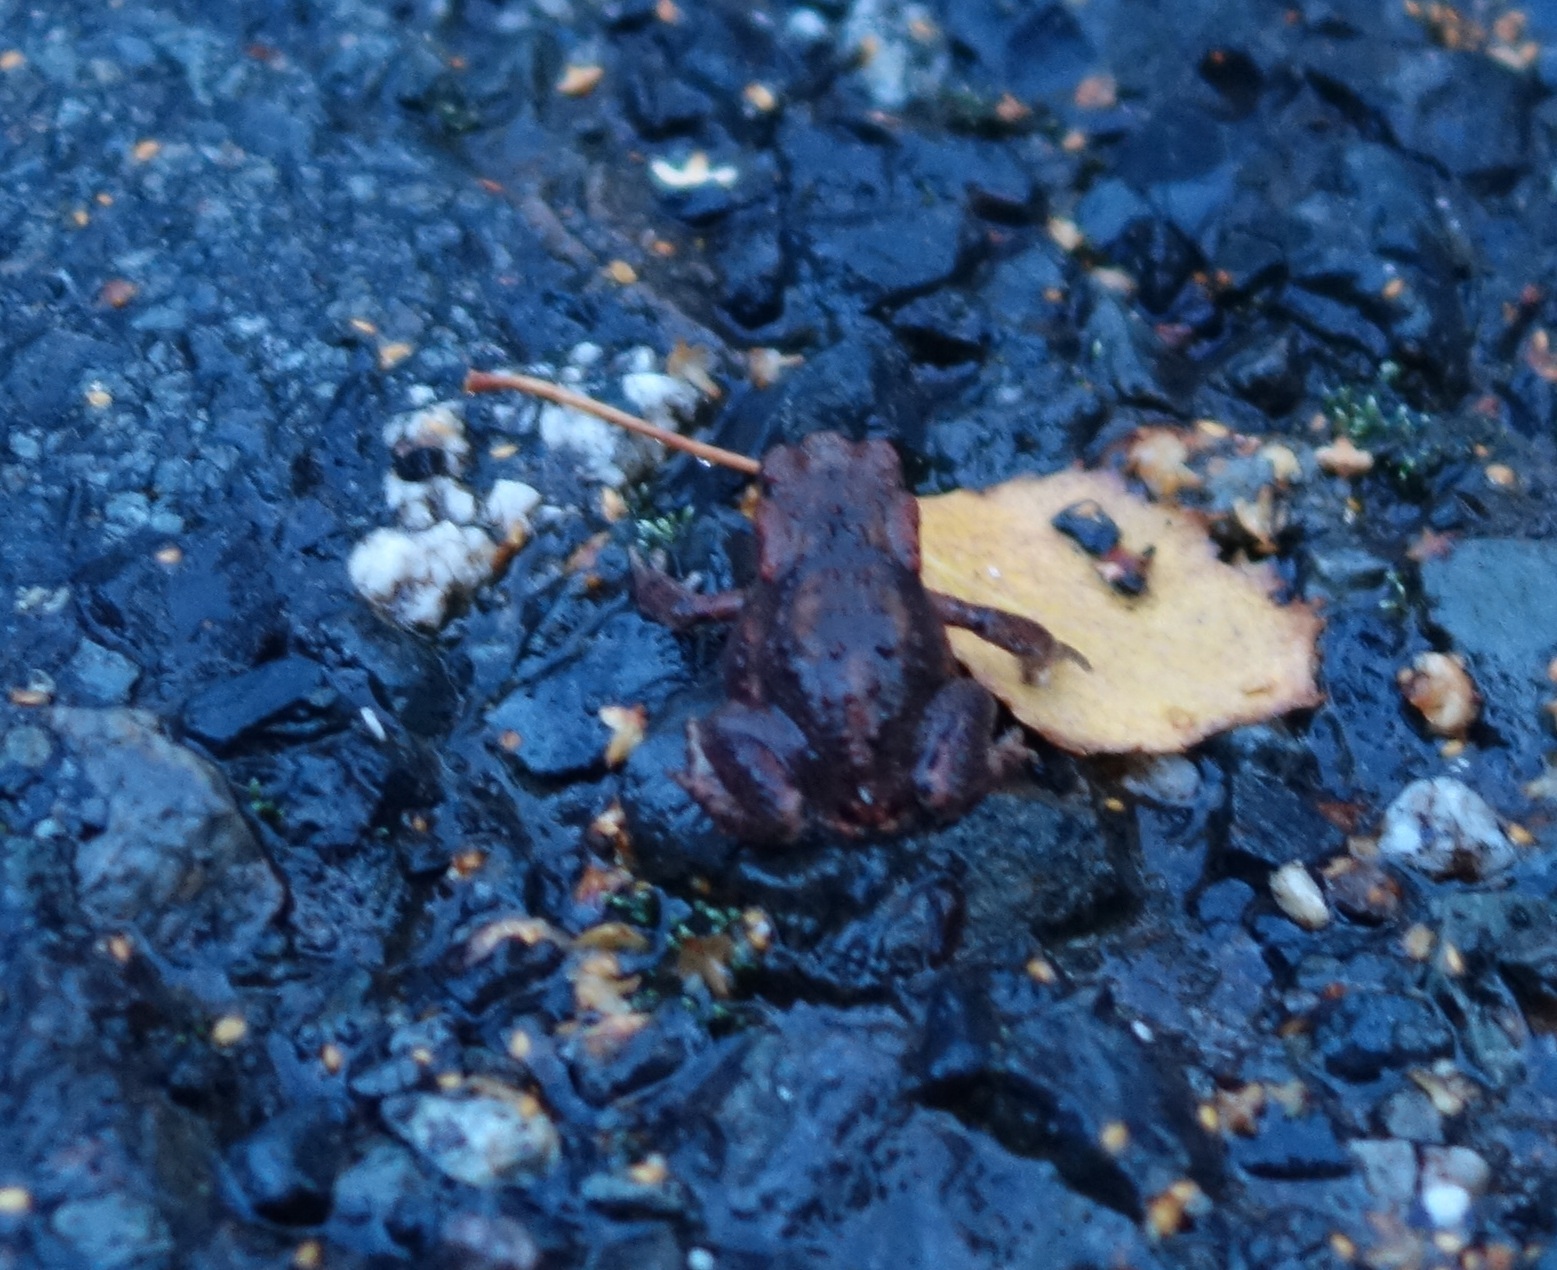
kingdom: Animalia
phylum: Chordata
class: Amphibia
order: Anura
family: Bufonidae
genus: Bufo
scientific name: Bufo bufo
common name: Common toad
